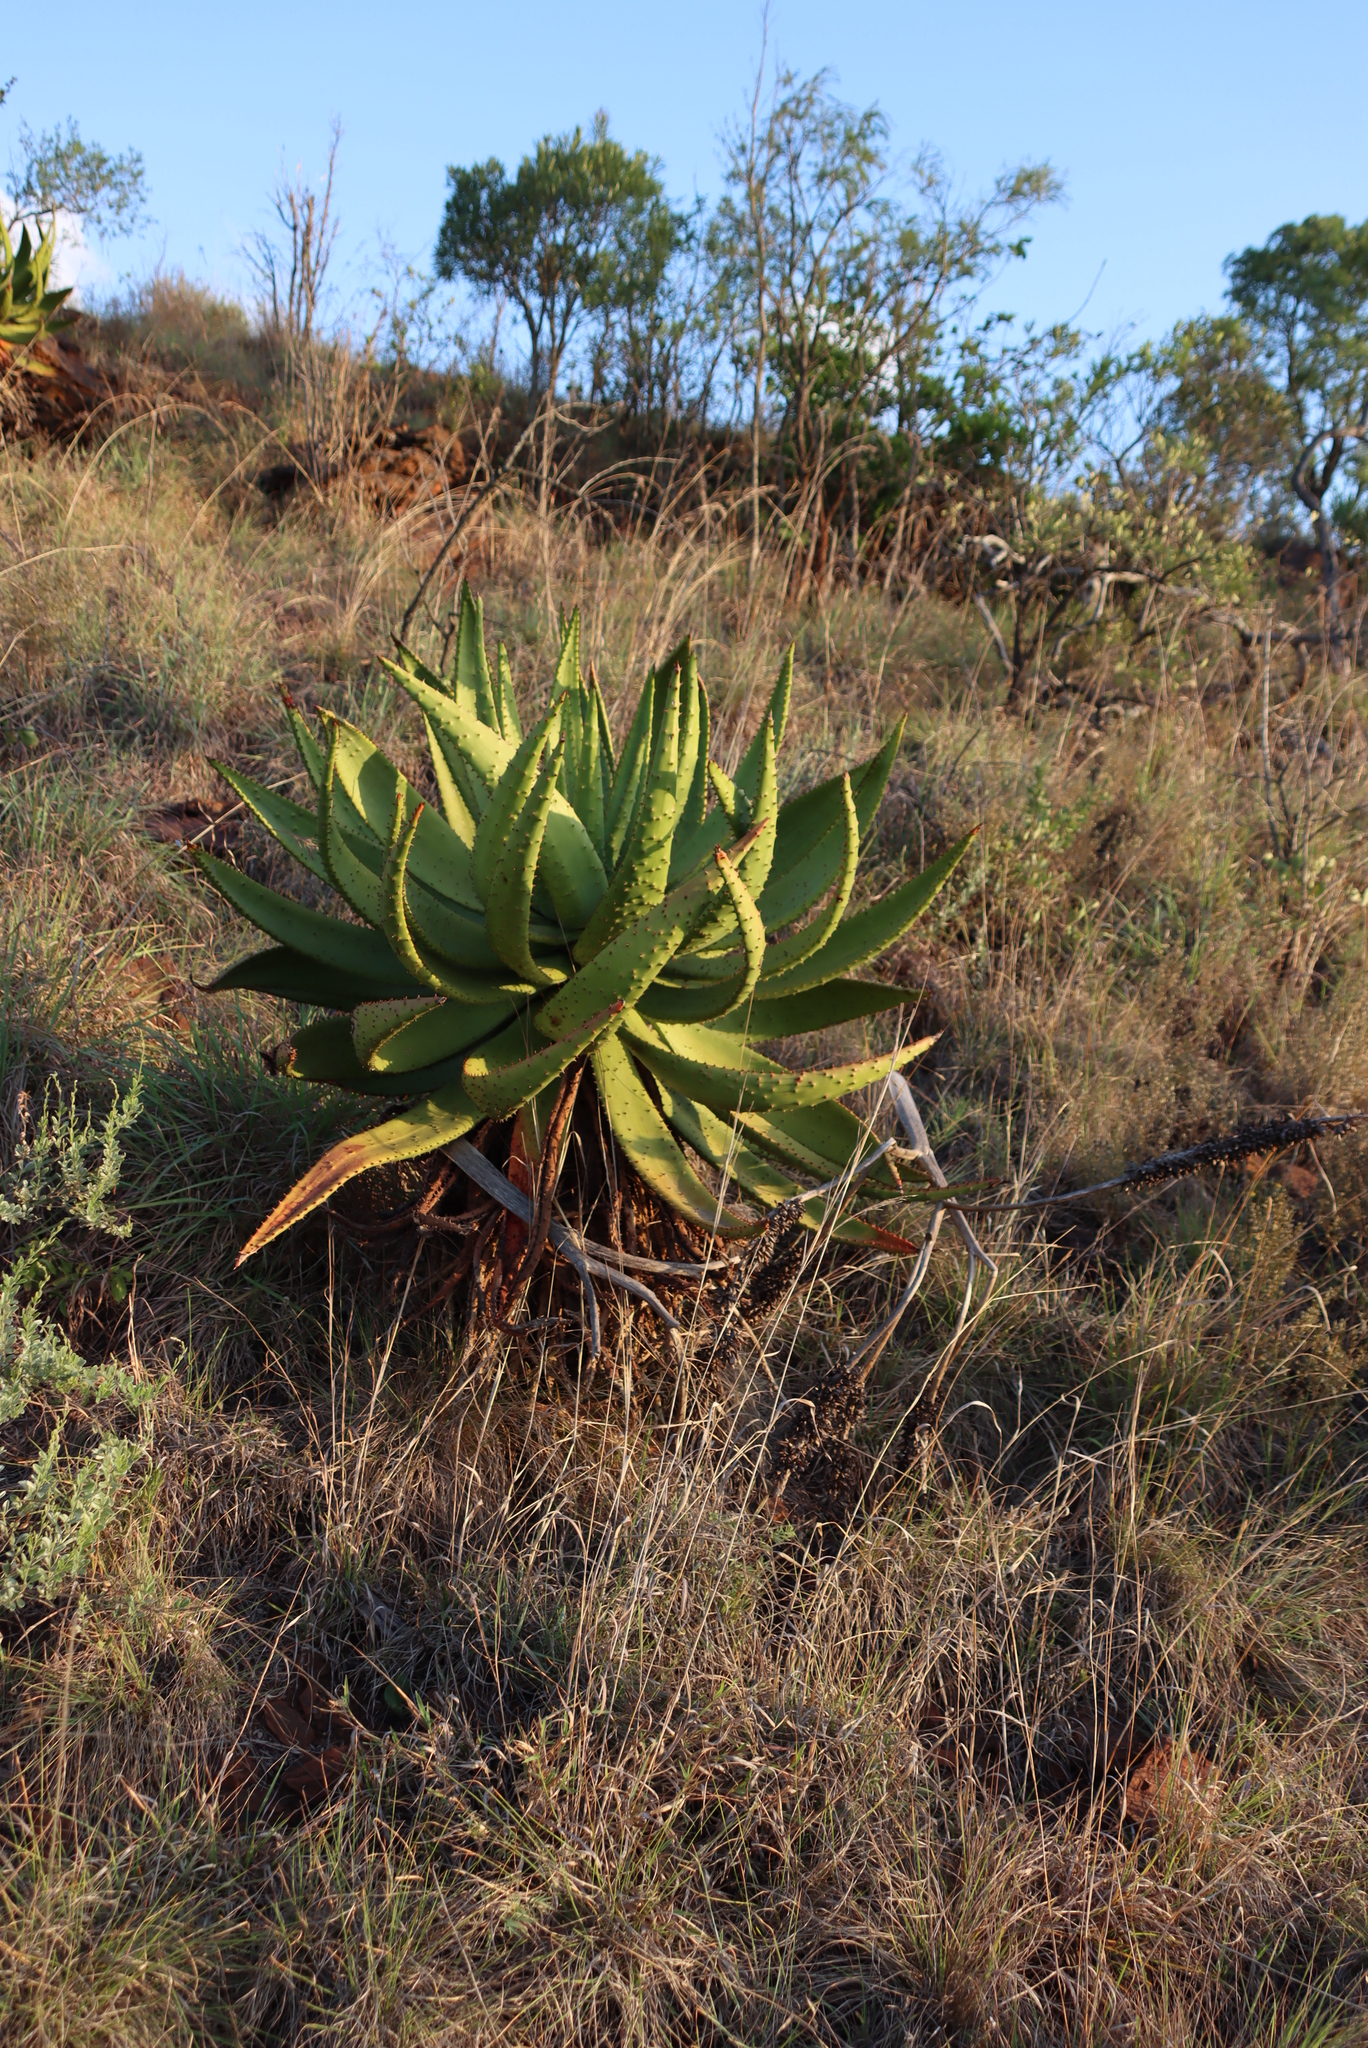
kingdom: Plantae
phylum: Tracheophyta
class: Liliopsida
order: Asparagales
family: Asphodelaceae
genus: Aloe
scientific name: Aloe marlothii
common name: Flat-flowered aloe
